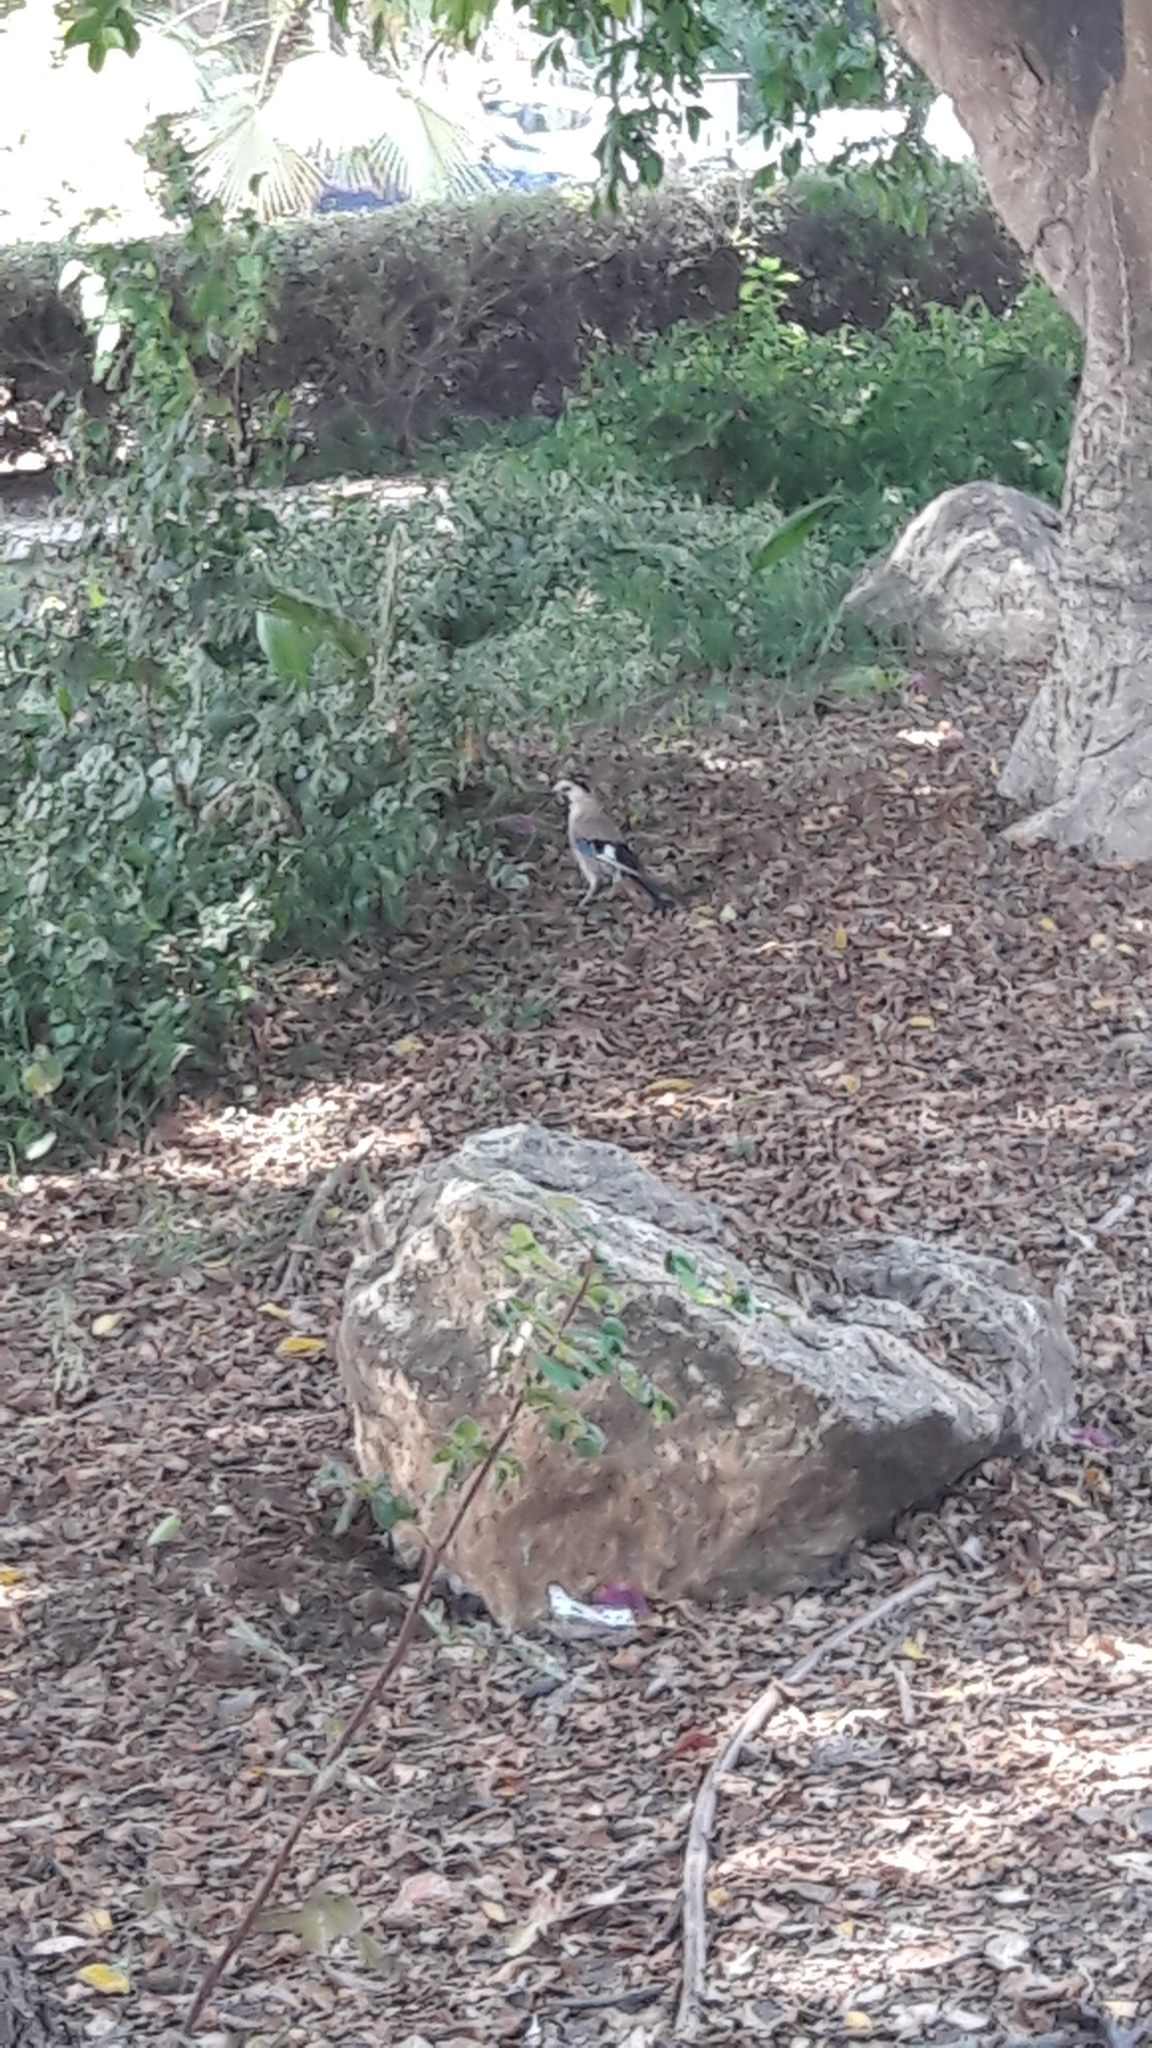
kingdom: Animalia
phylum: Chordata
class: Aves
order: Passeriformes
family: Corvidae
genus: Garrulus
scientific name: Garrulus glandarius
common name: Eurasian jay
